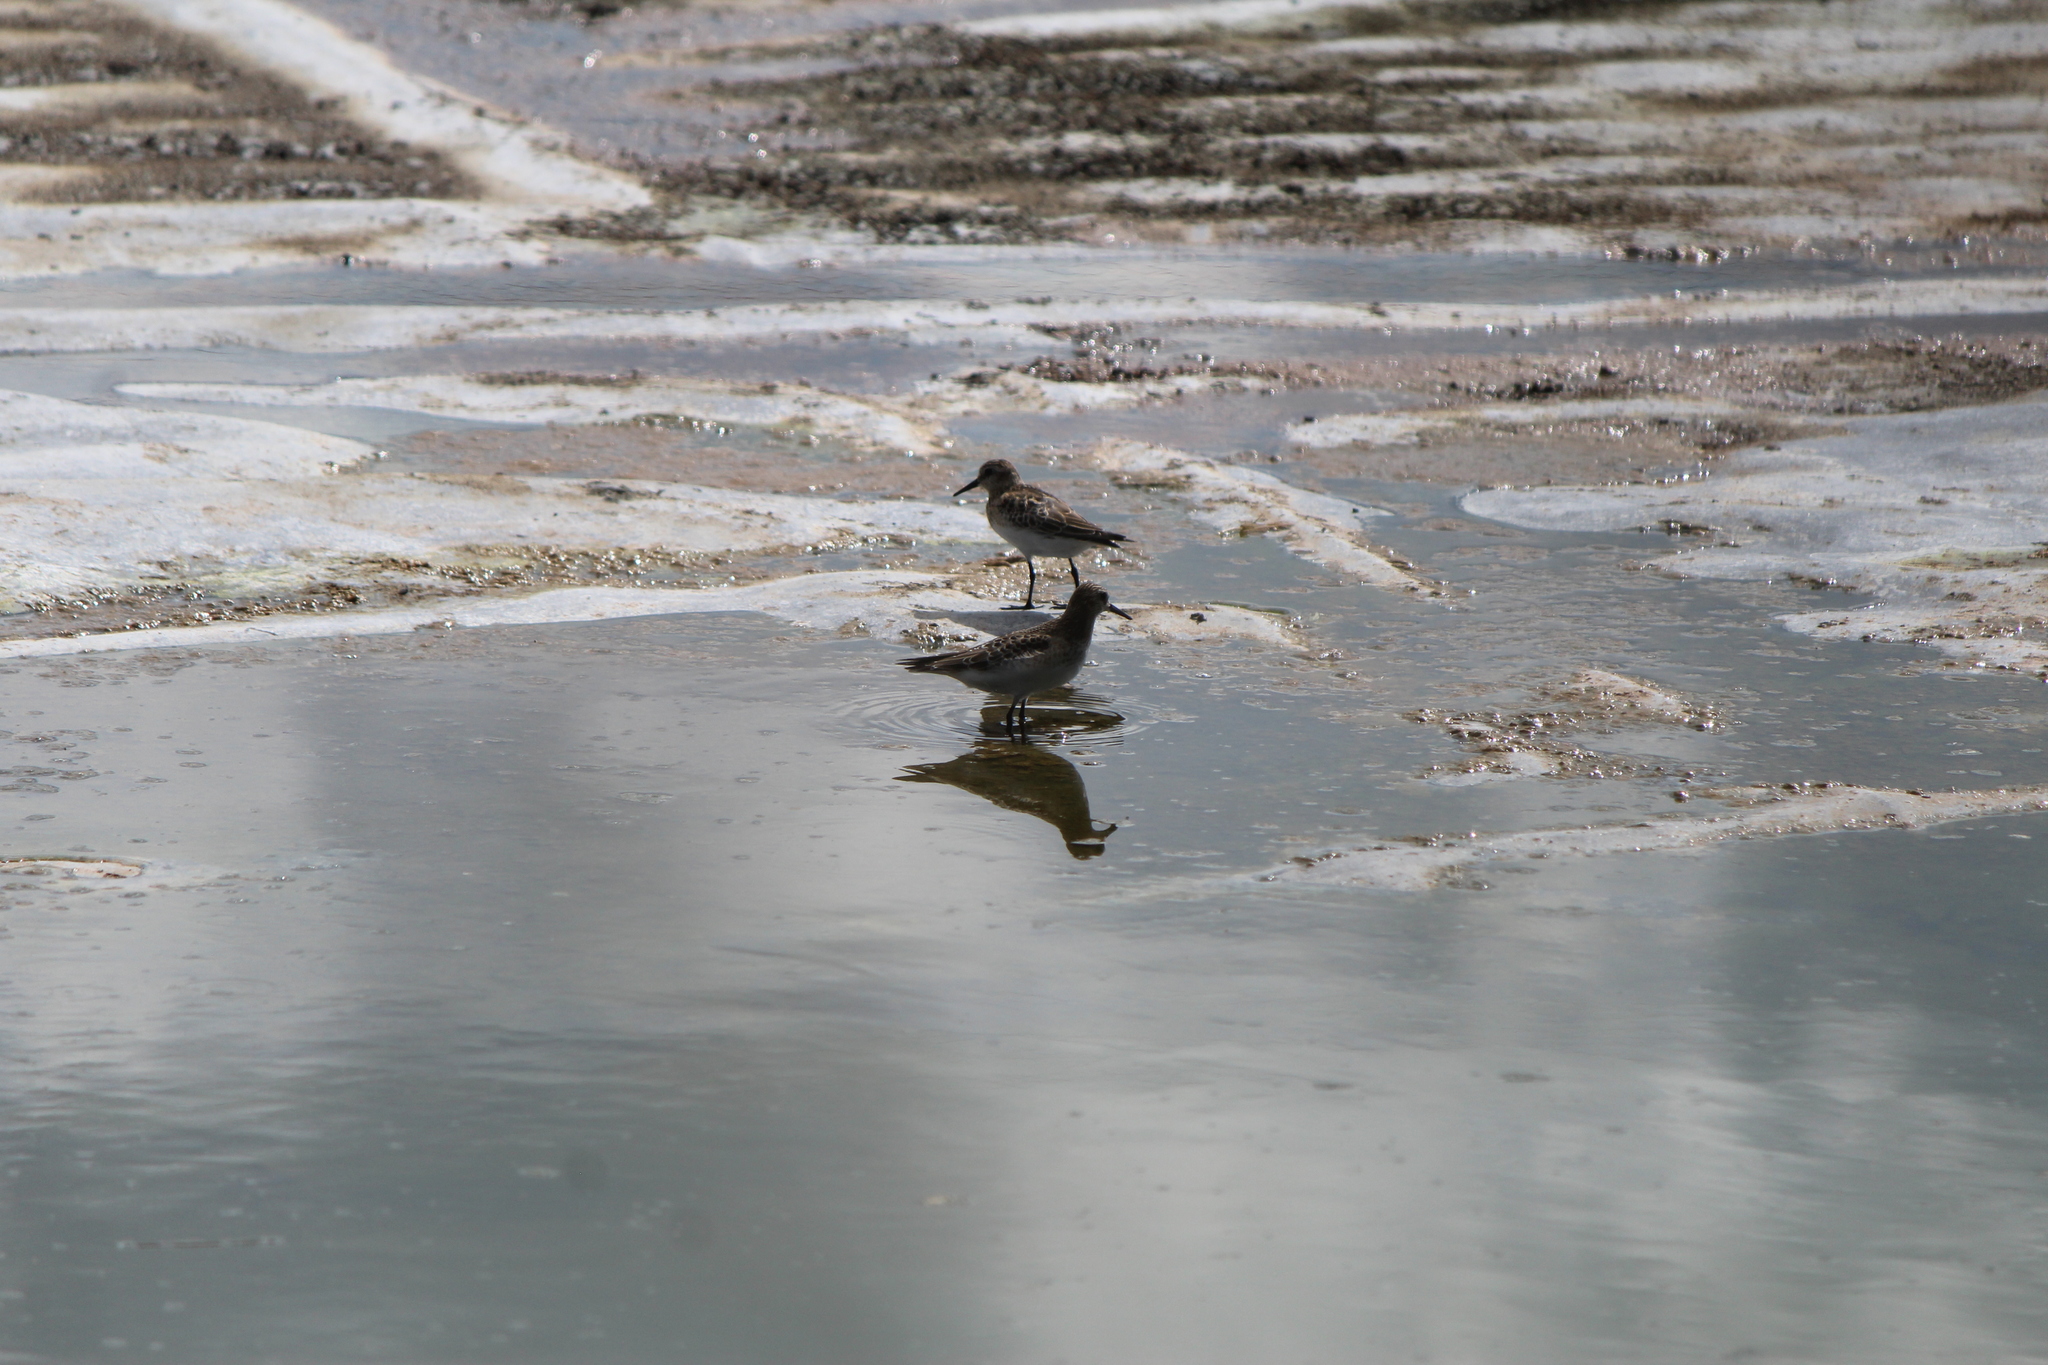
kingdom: Animalia
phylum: Chordata
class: Aves
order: Charadriiformes
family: Scolopacidae
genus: Calidris
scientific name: Calidris bairdii
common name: Baird's sandpiper
